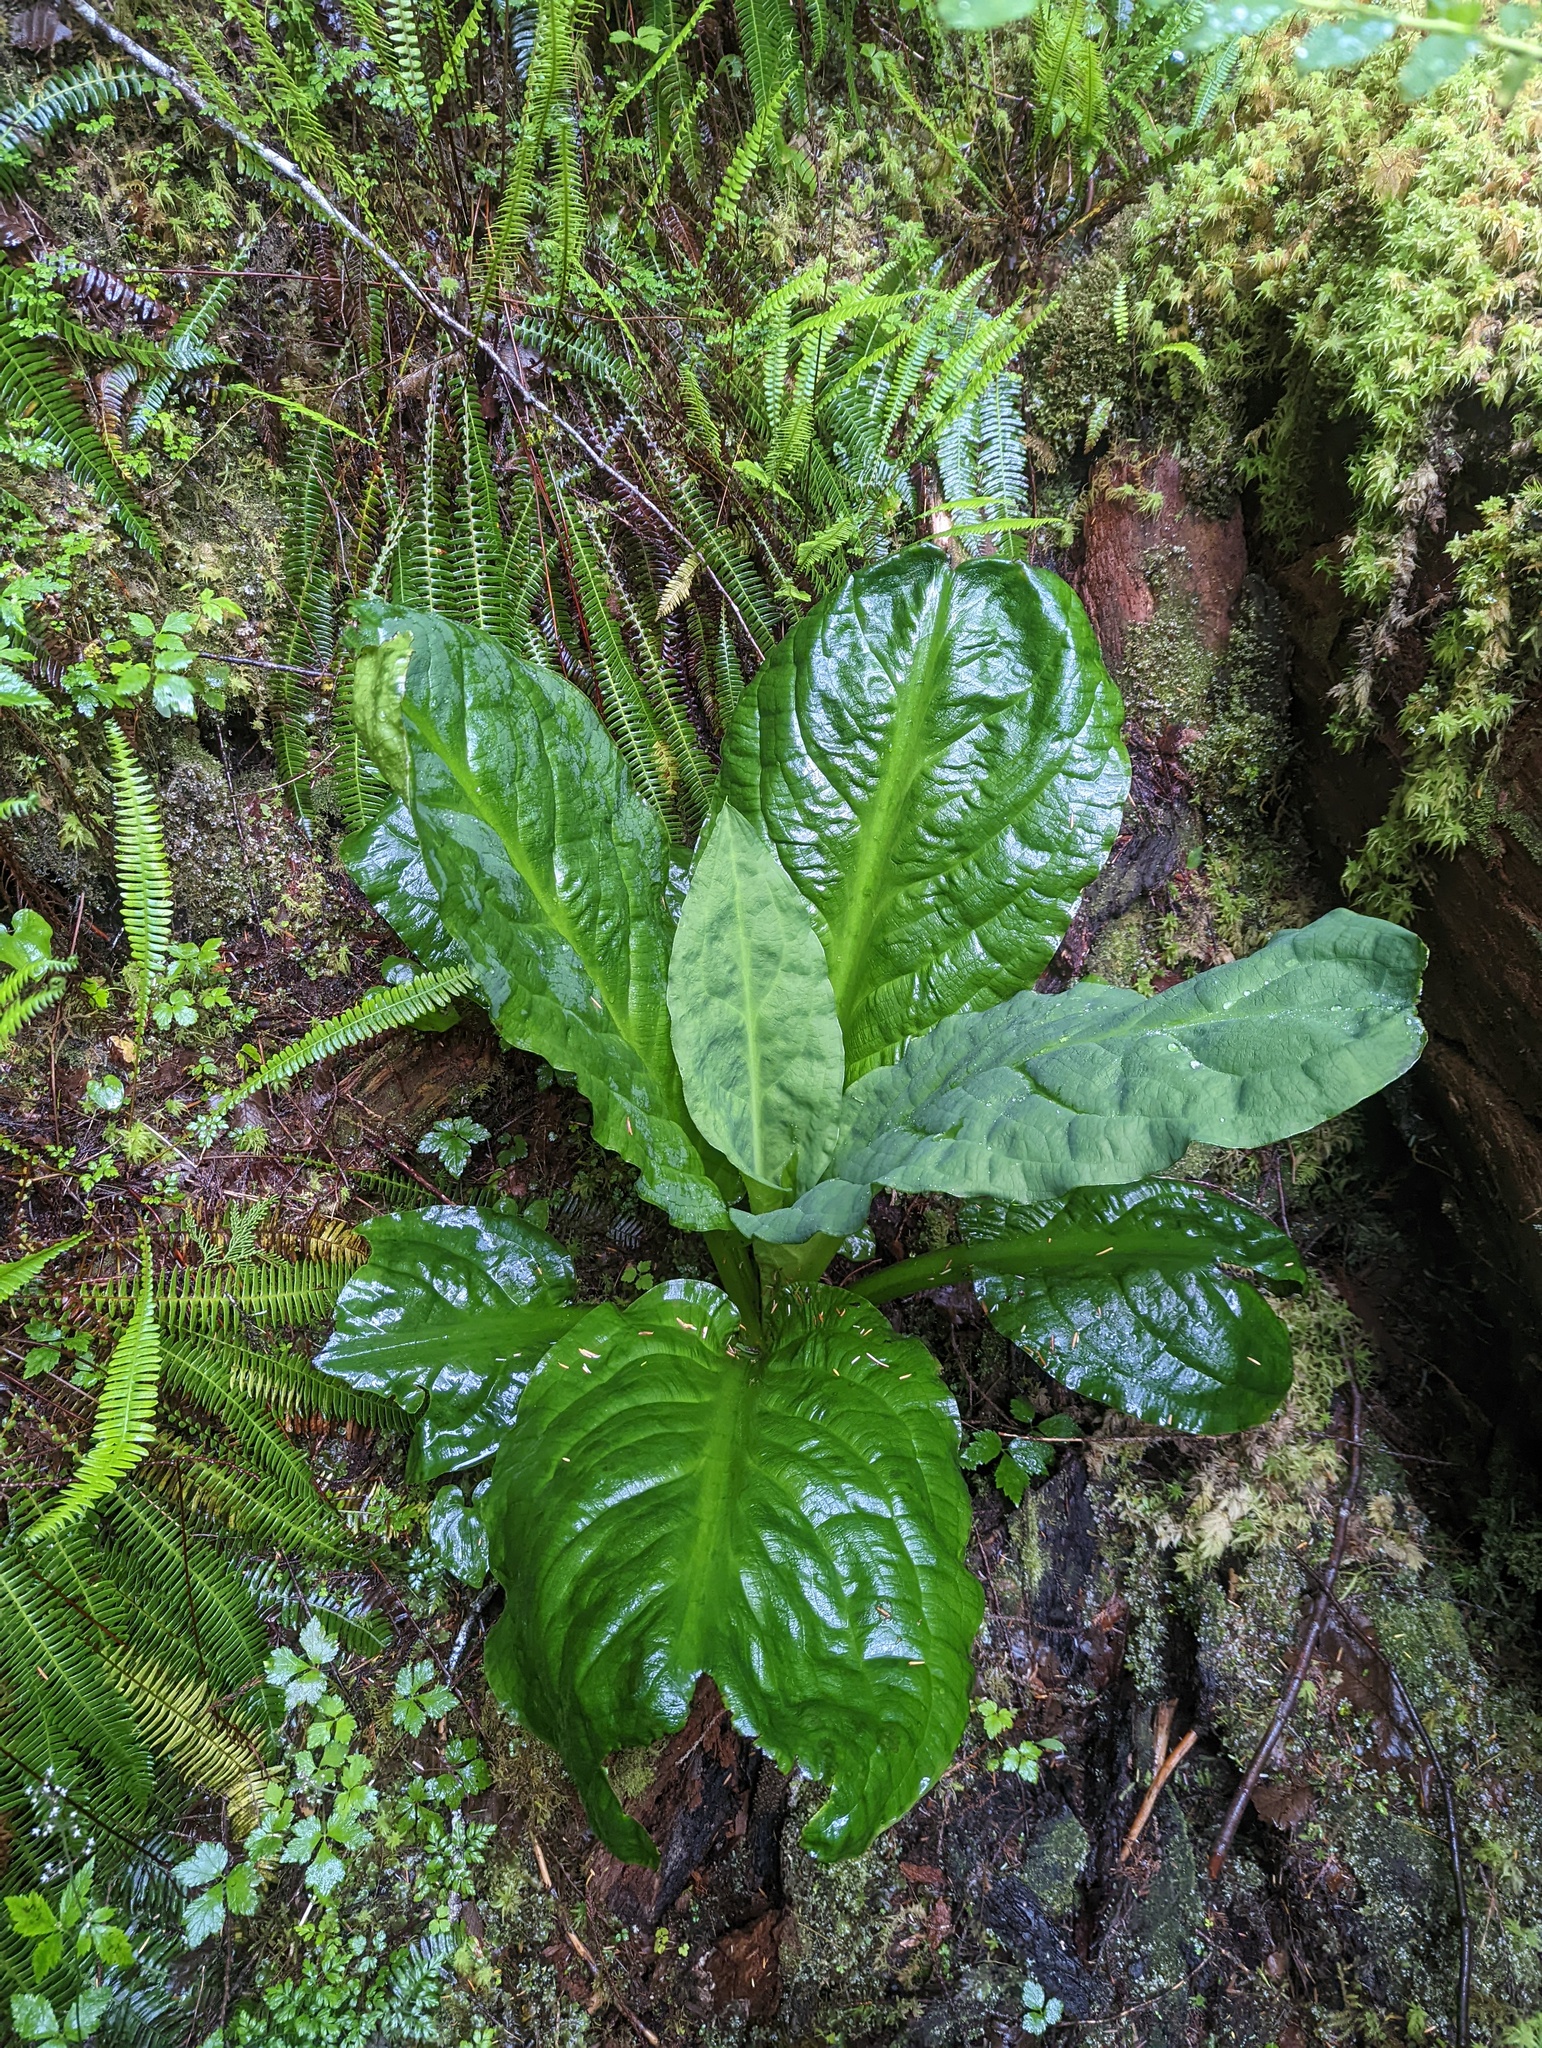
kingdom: Plantae
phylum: Tracheophyta
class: Liliopsida
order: Alismatales
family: Araceae
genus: Lysichiton
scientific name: Lysichiton americanus
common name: American skunk cabbage
